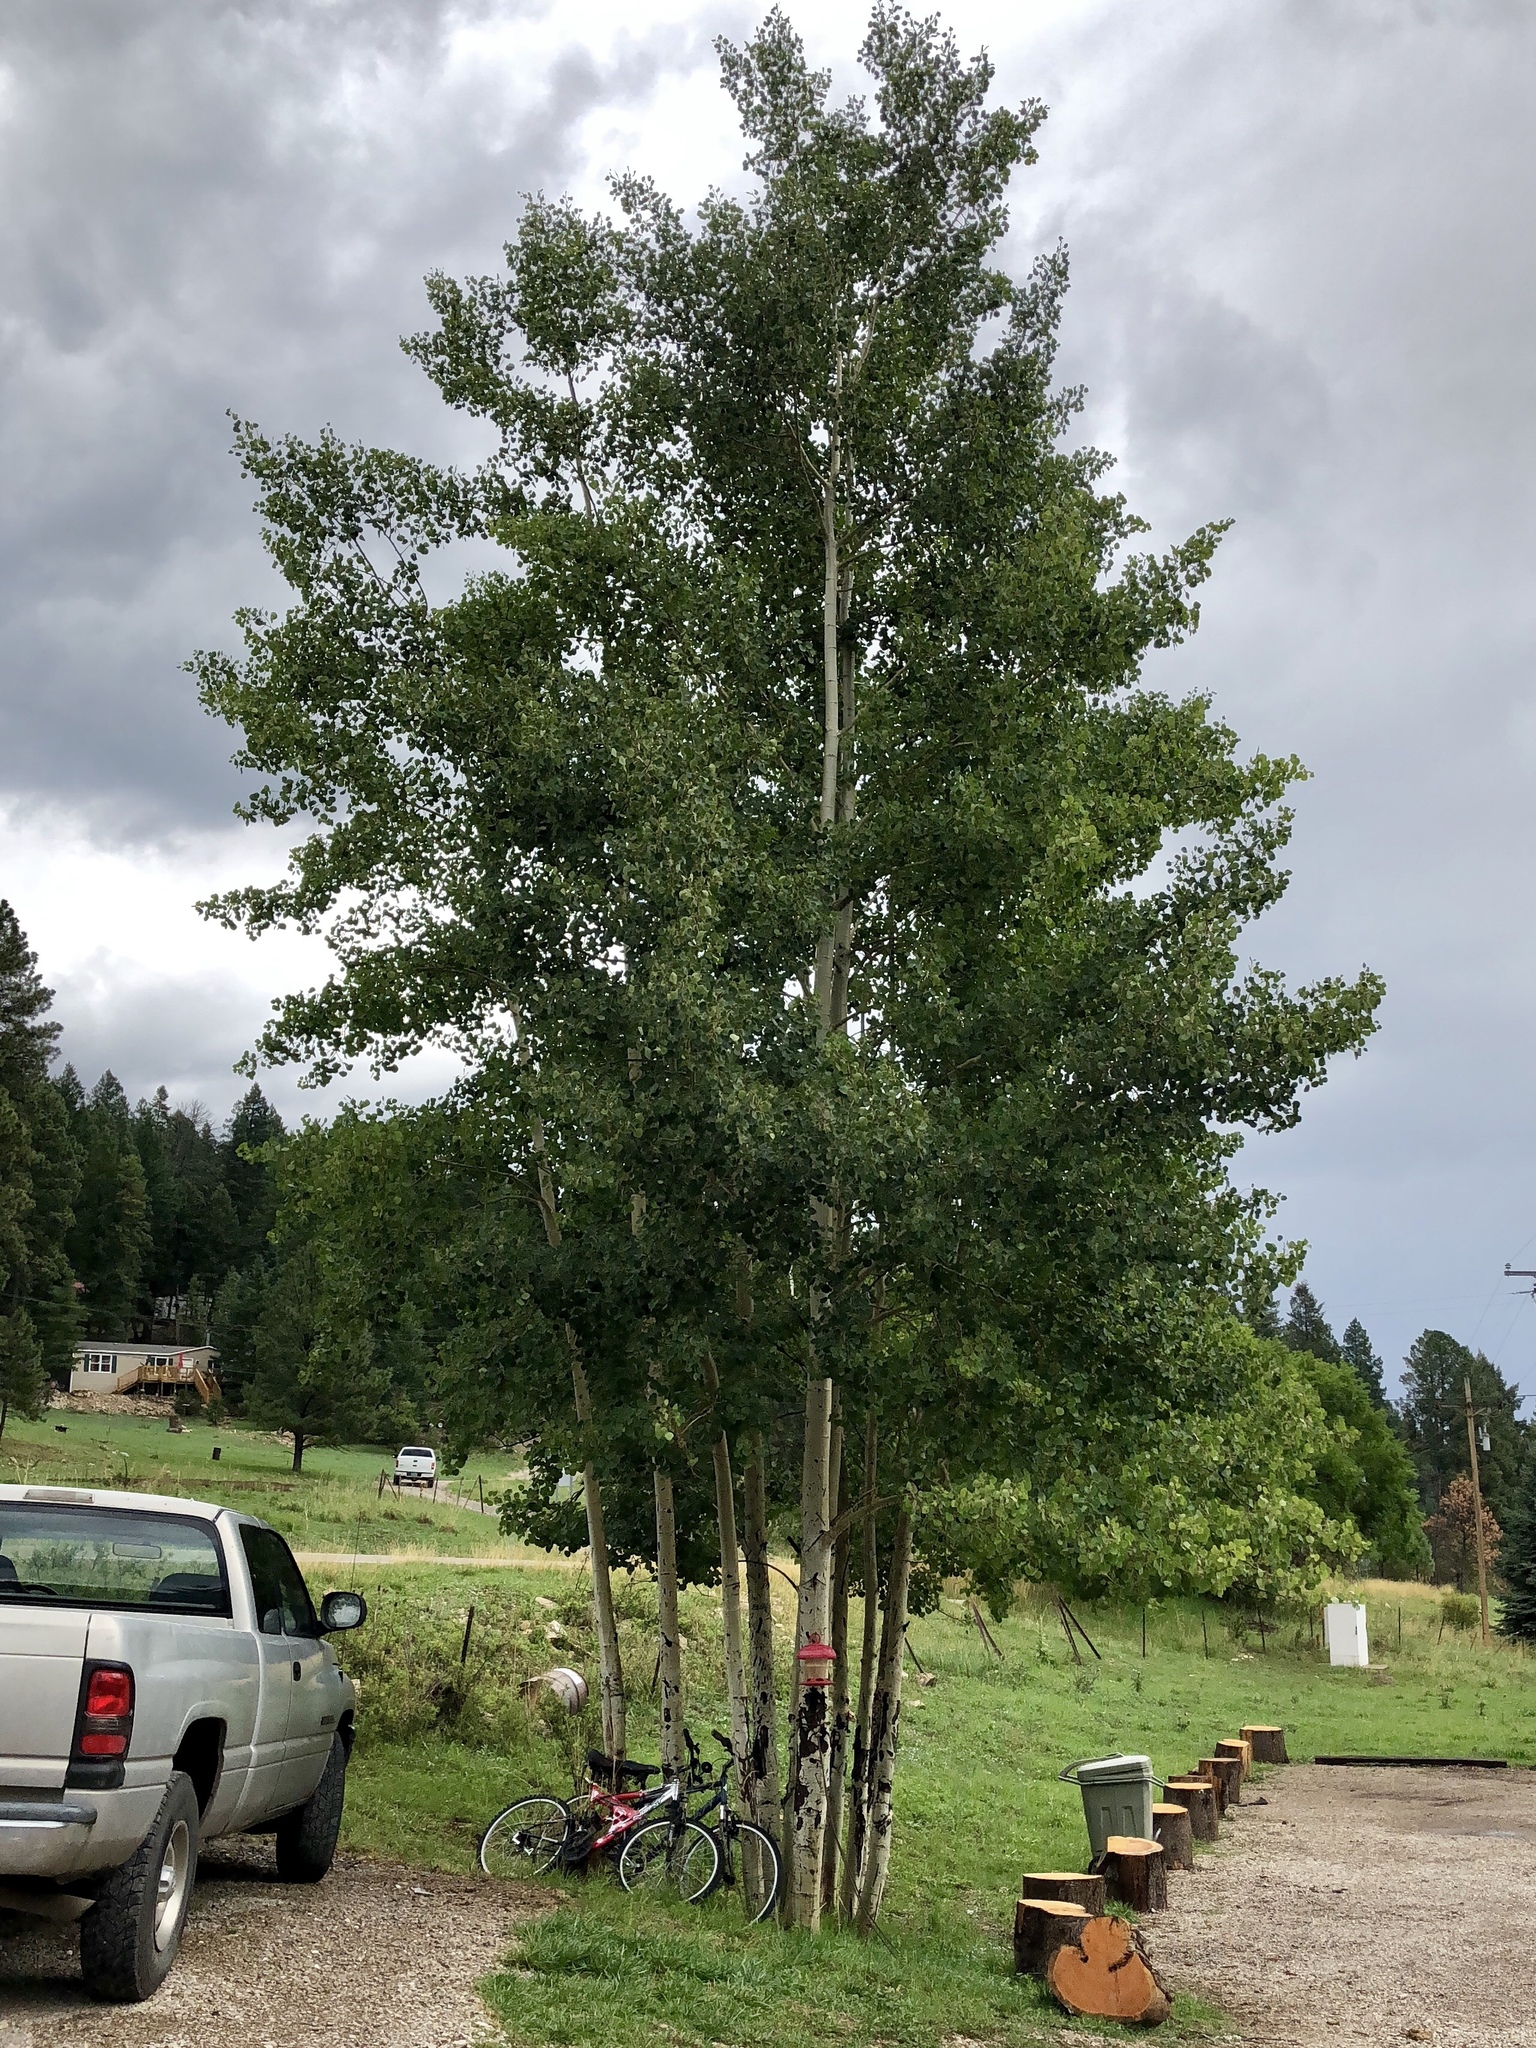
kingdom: Plantae
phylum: Tracheophyta
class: Magnoliopsida
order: Malpighiales
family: Salicaceae
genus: Populus
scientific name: Populus tremuloides
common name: Quaking aspen
